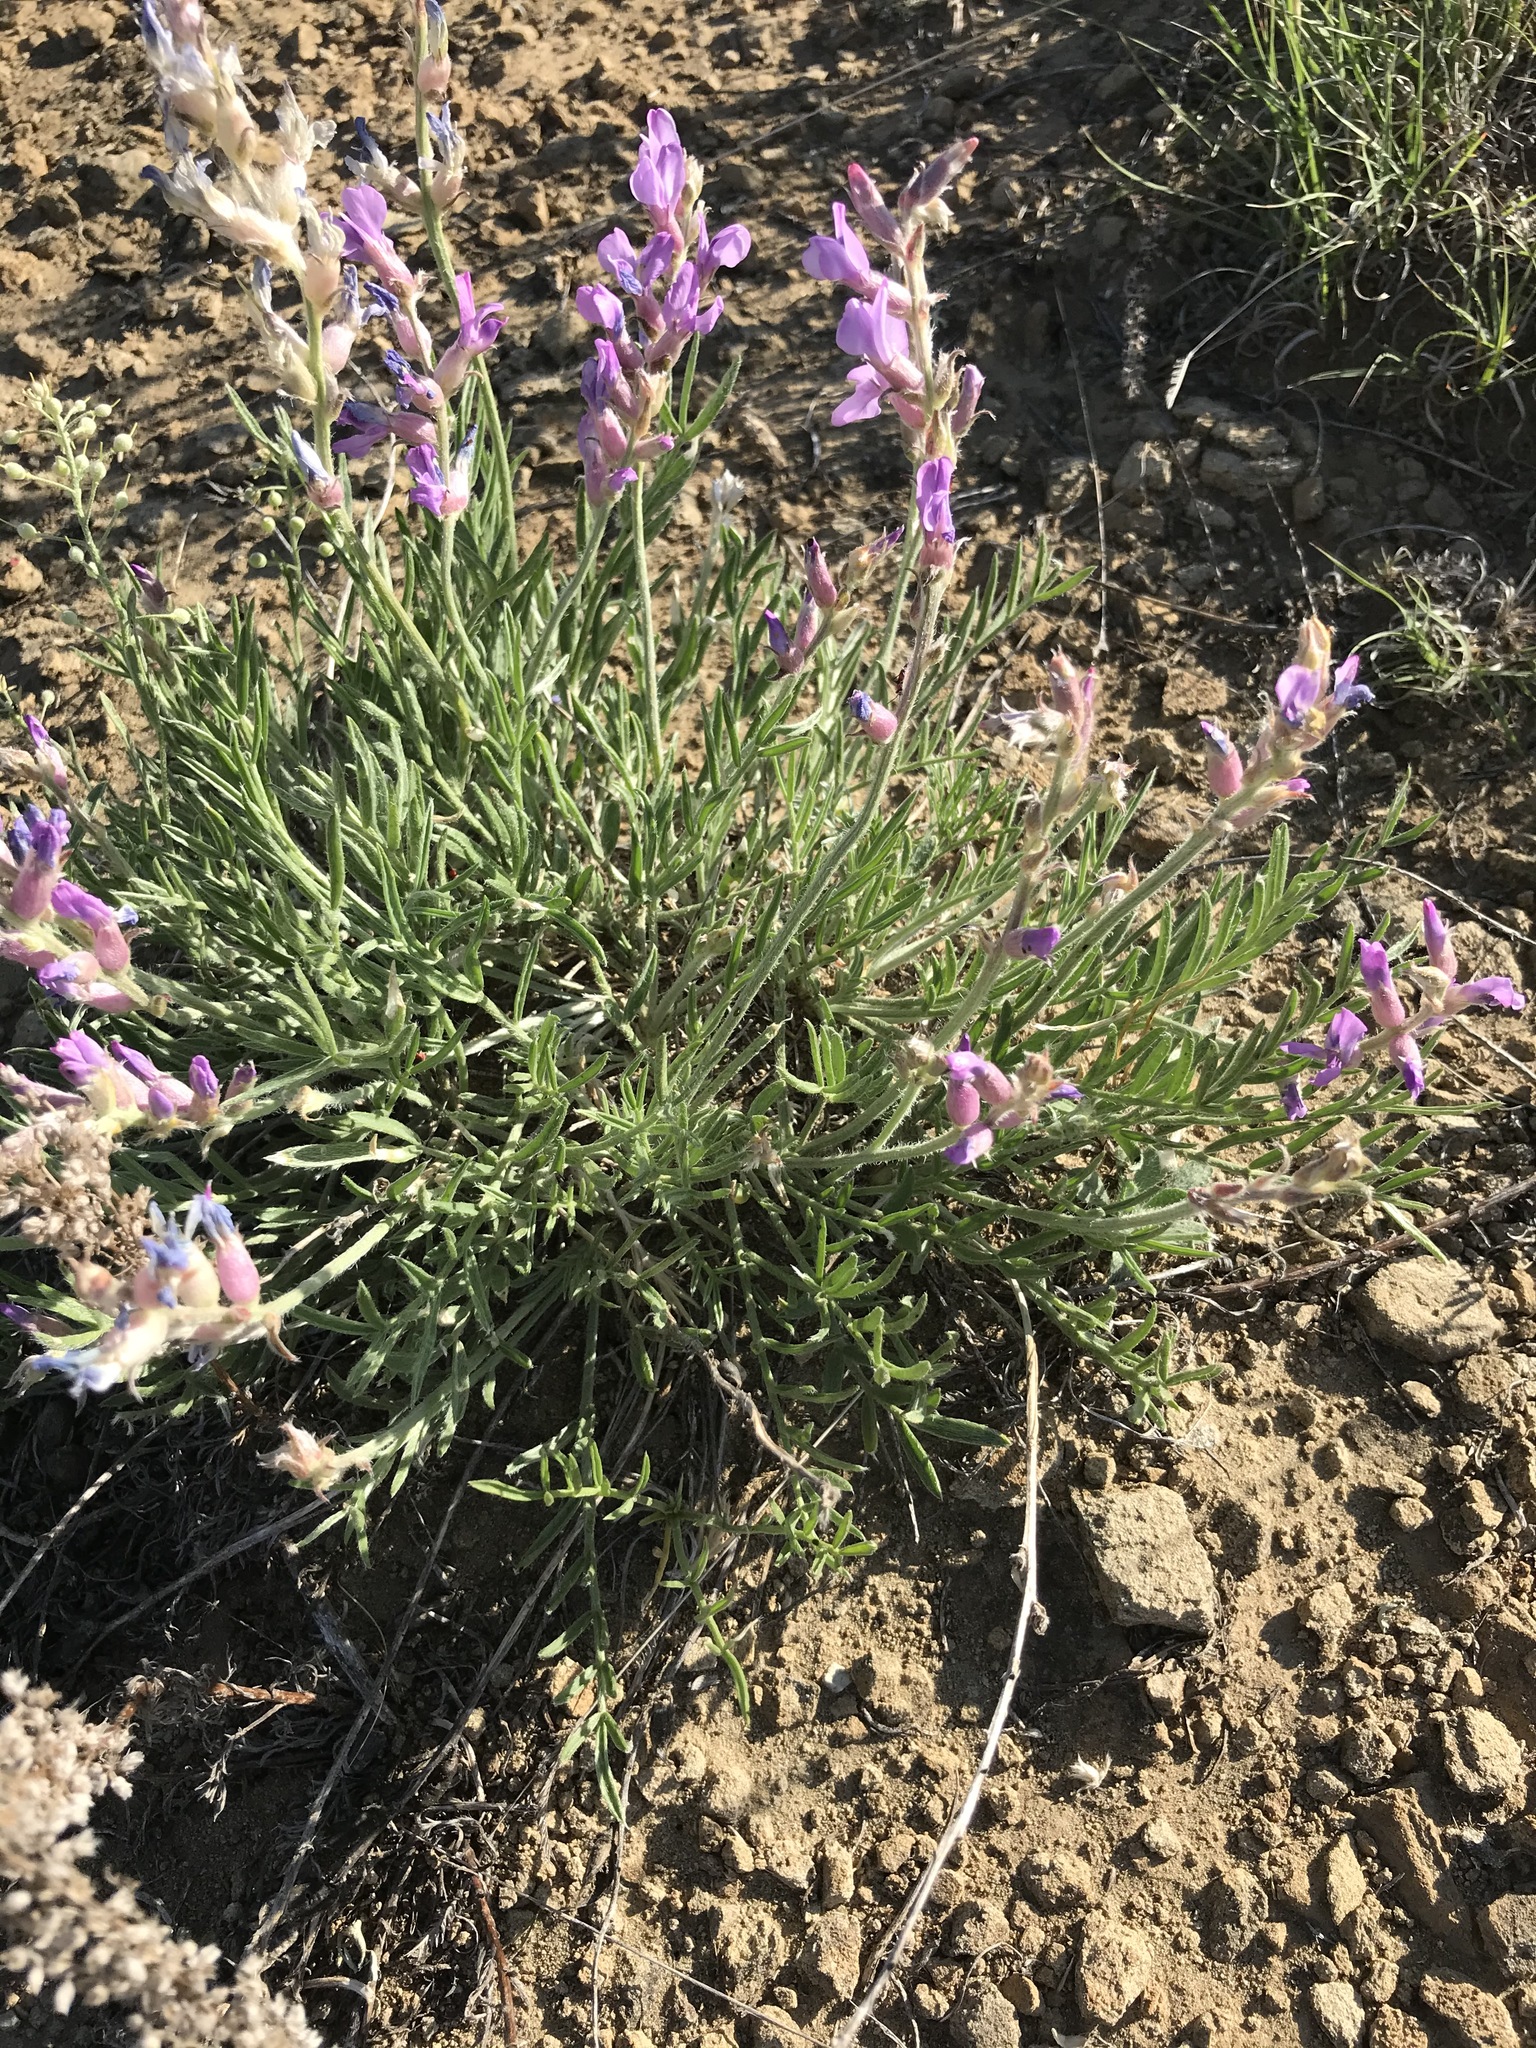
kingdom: Plantae
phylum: Tracheophyta
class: Magnoliopsida
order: Fabales
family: Fabaceae
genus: Oxytropis
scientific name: Oxytropis lambertii
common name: Purple locoweed
